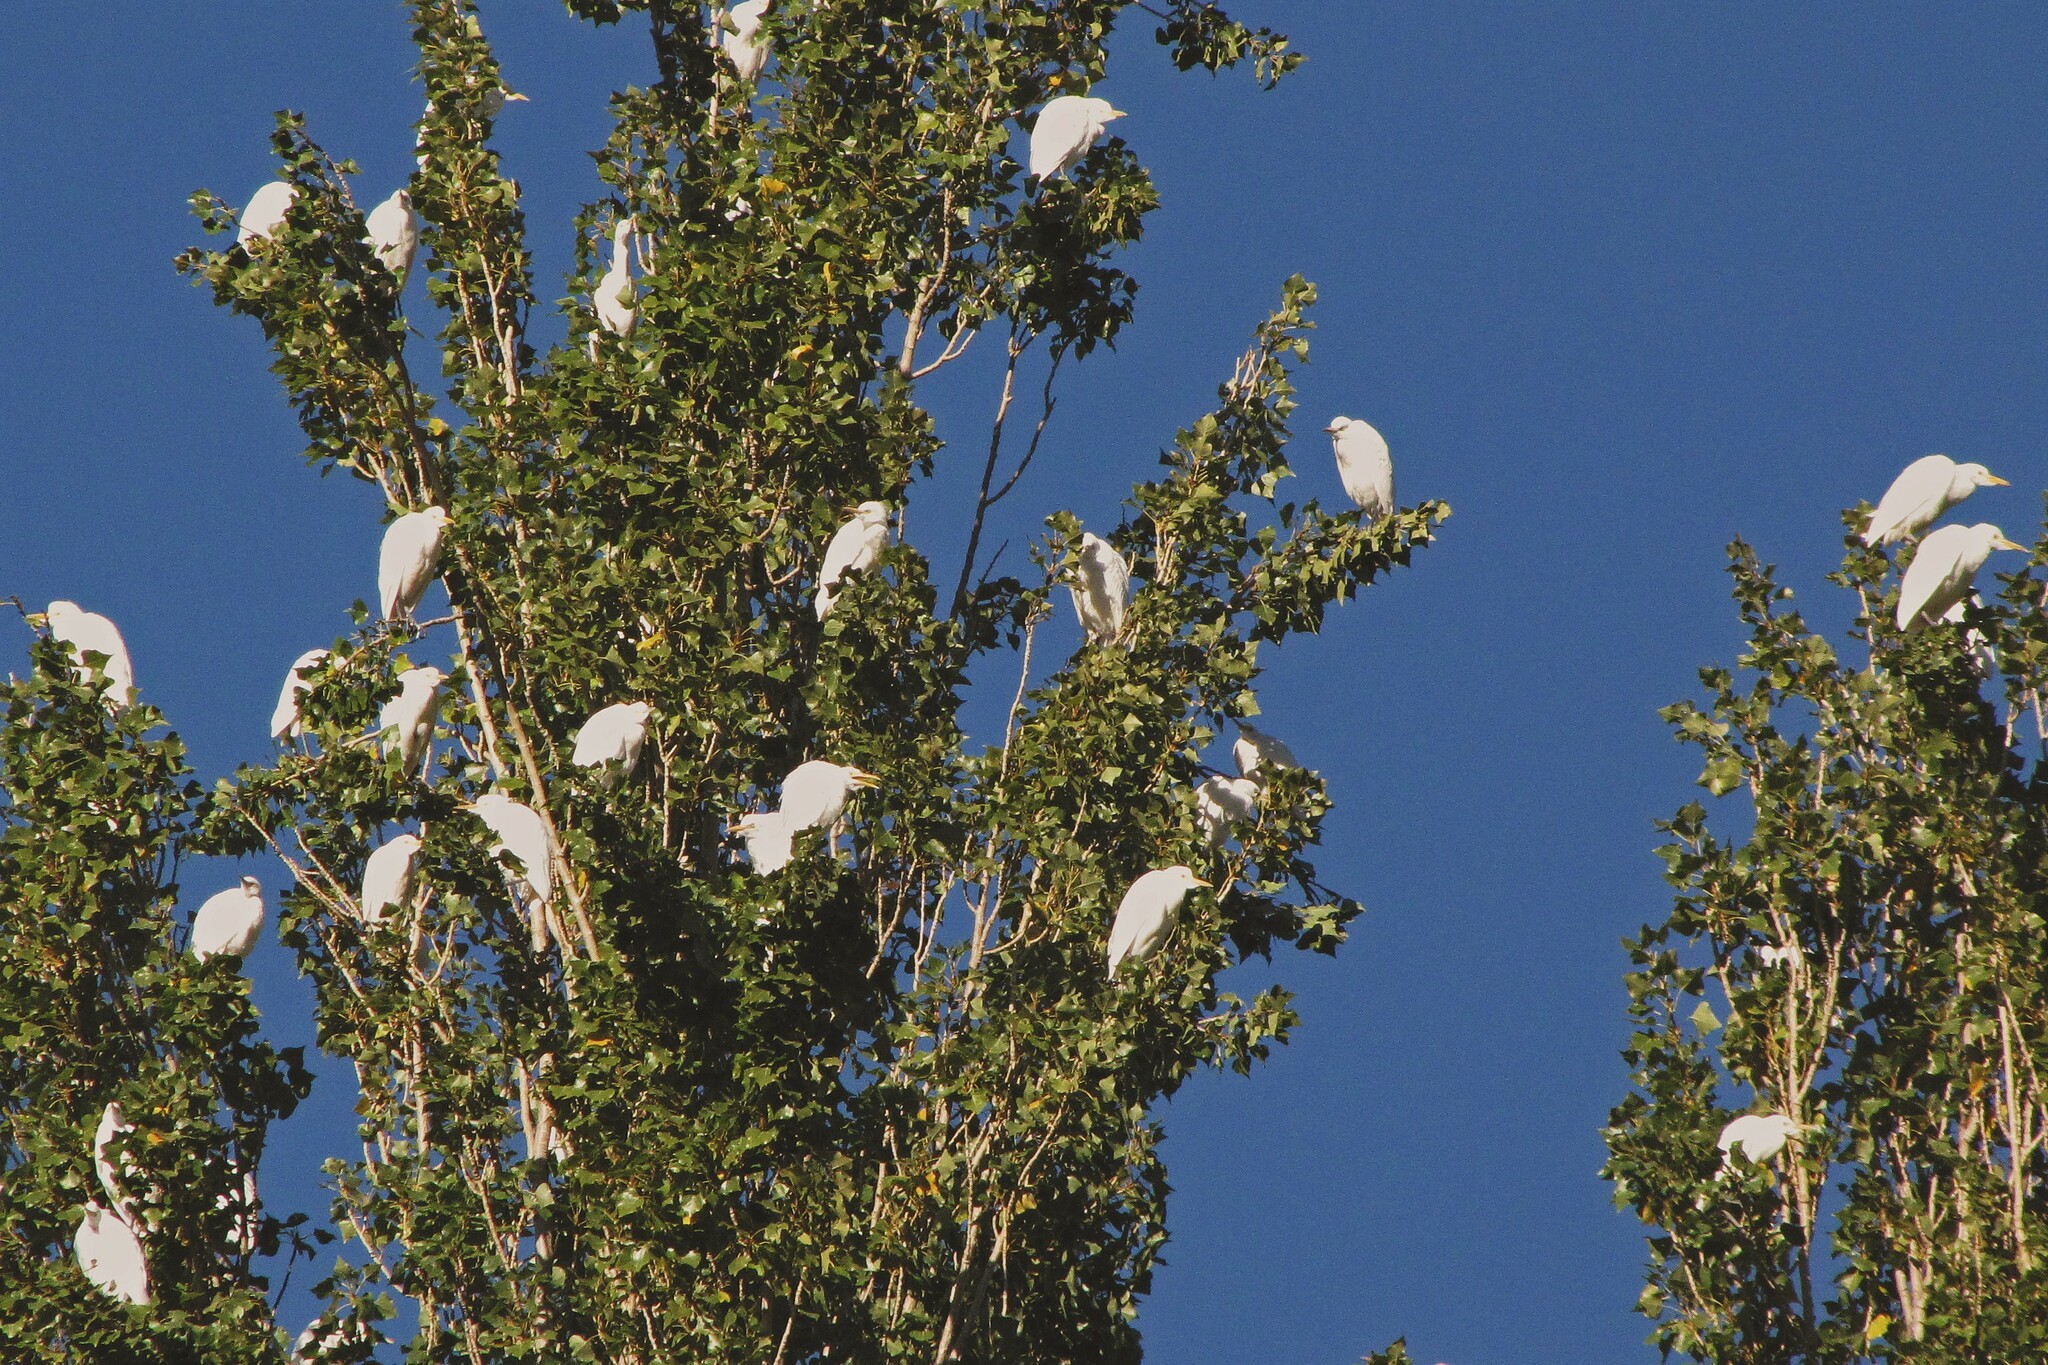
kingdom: Animalia
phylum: Chordata
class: Aves
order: Pelecaniformes
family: Ardeidae
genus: Bubulcus
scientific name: Bubulcus ibis
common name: Cattle egret
